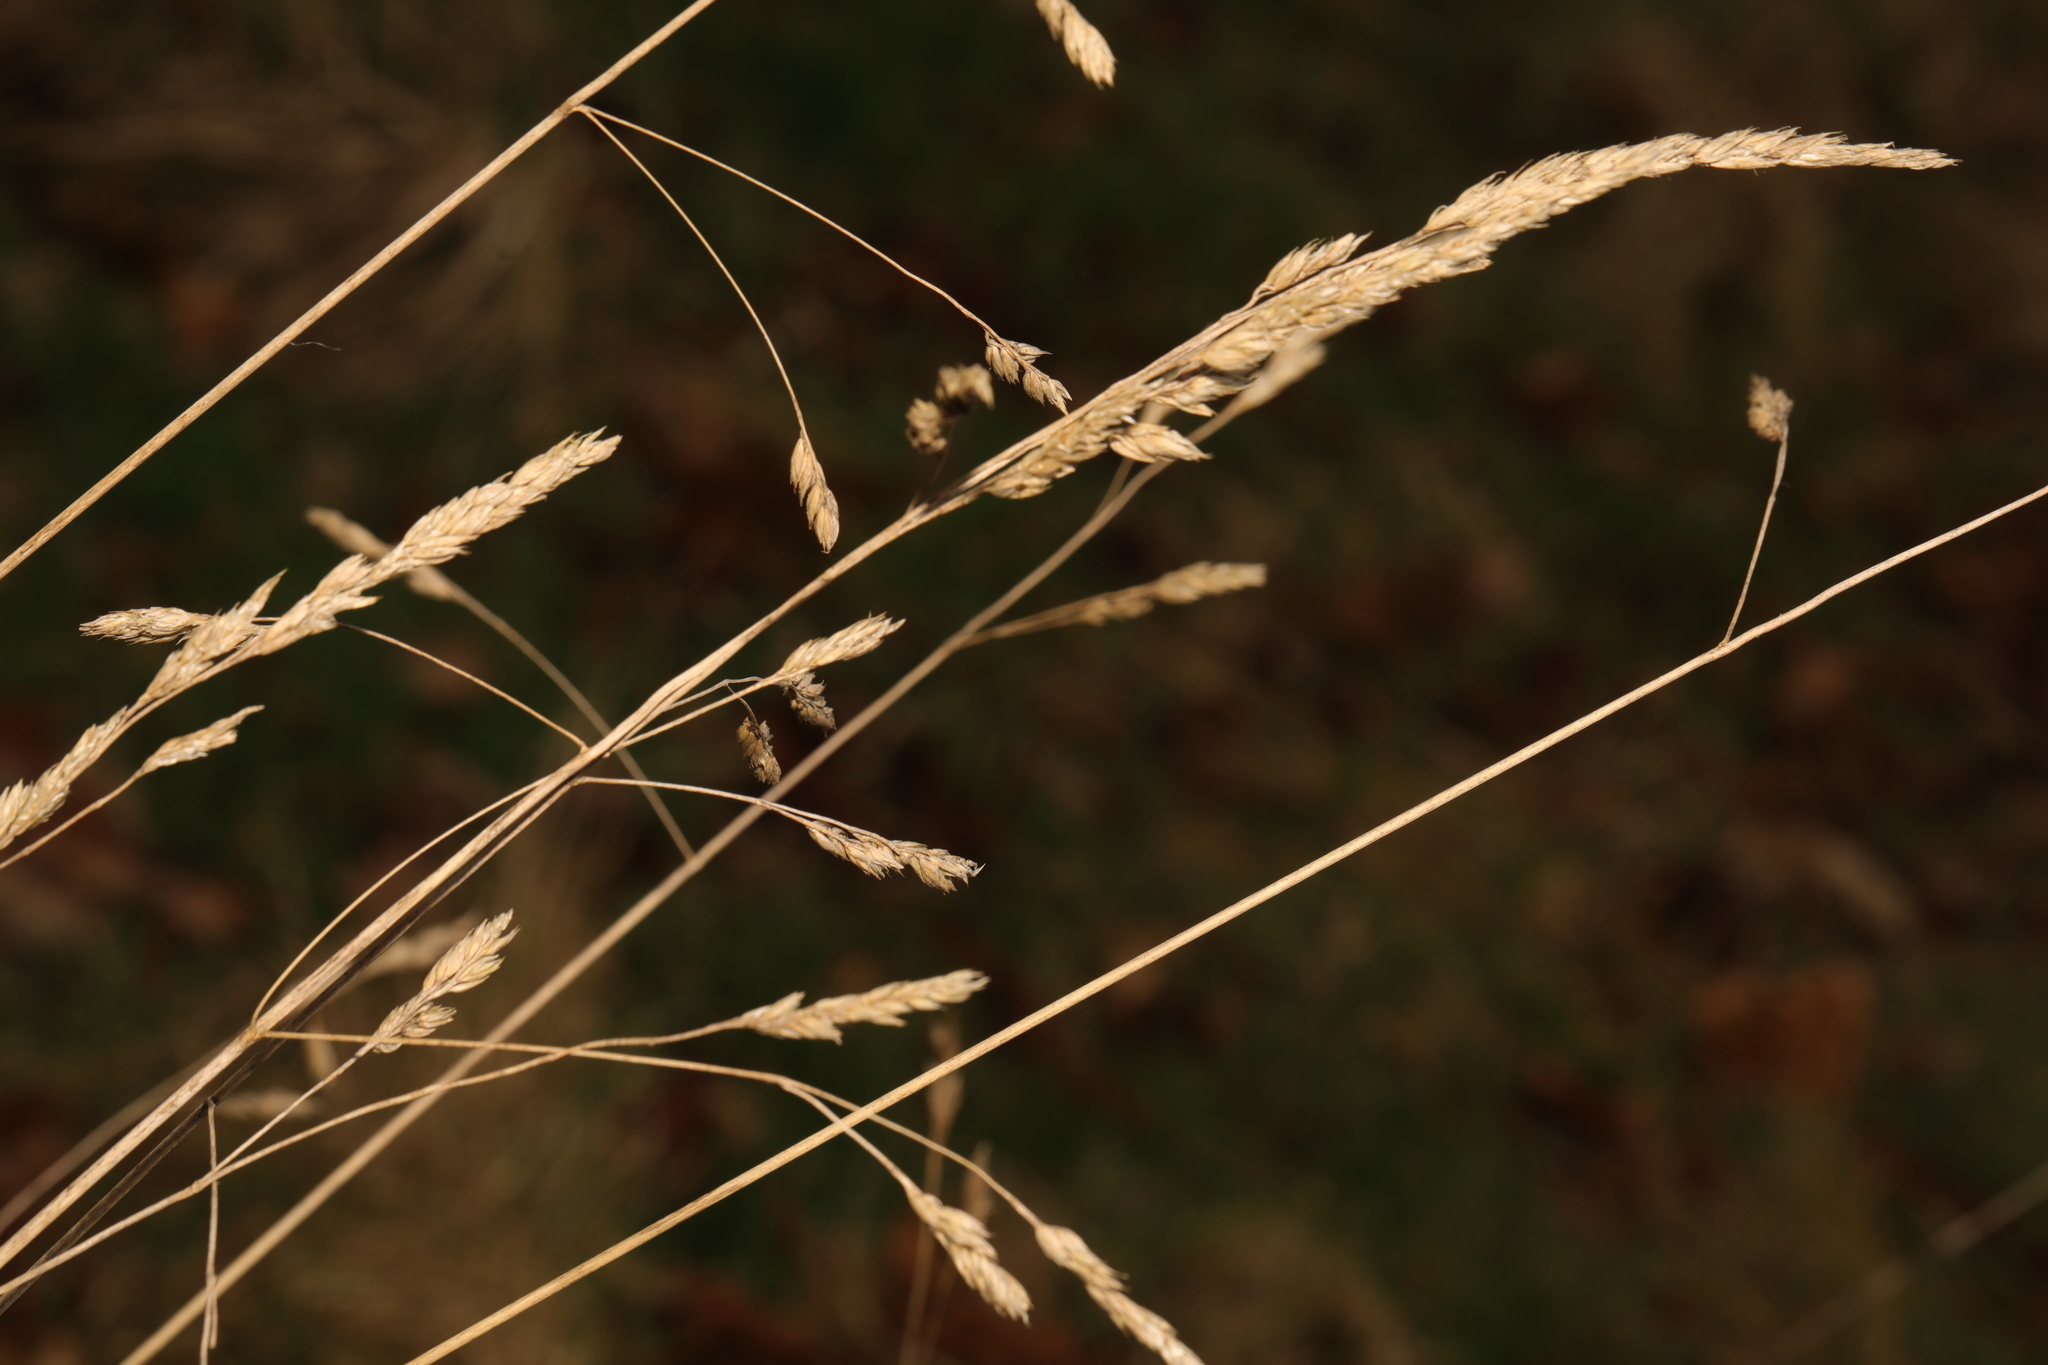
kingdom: Plantae
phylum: Tracheophyta
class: Liliopsida
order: Poales
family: Poaceae
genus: Dactylis
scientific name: Dactylis glomerata
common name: Orchardgrass
